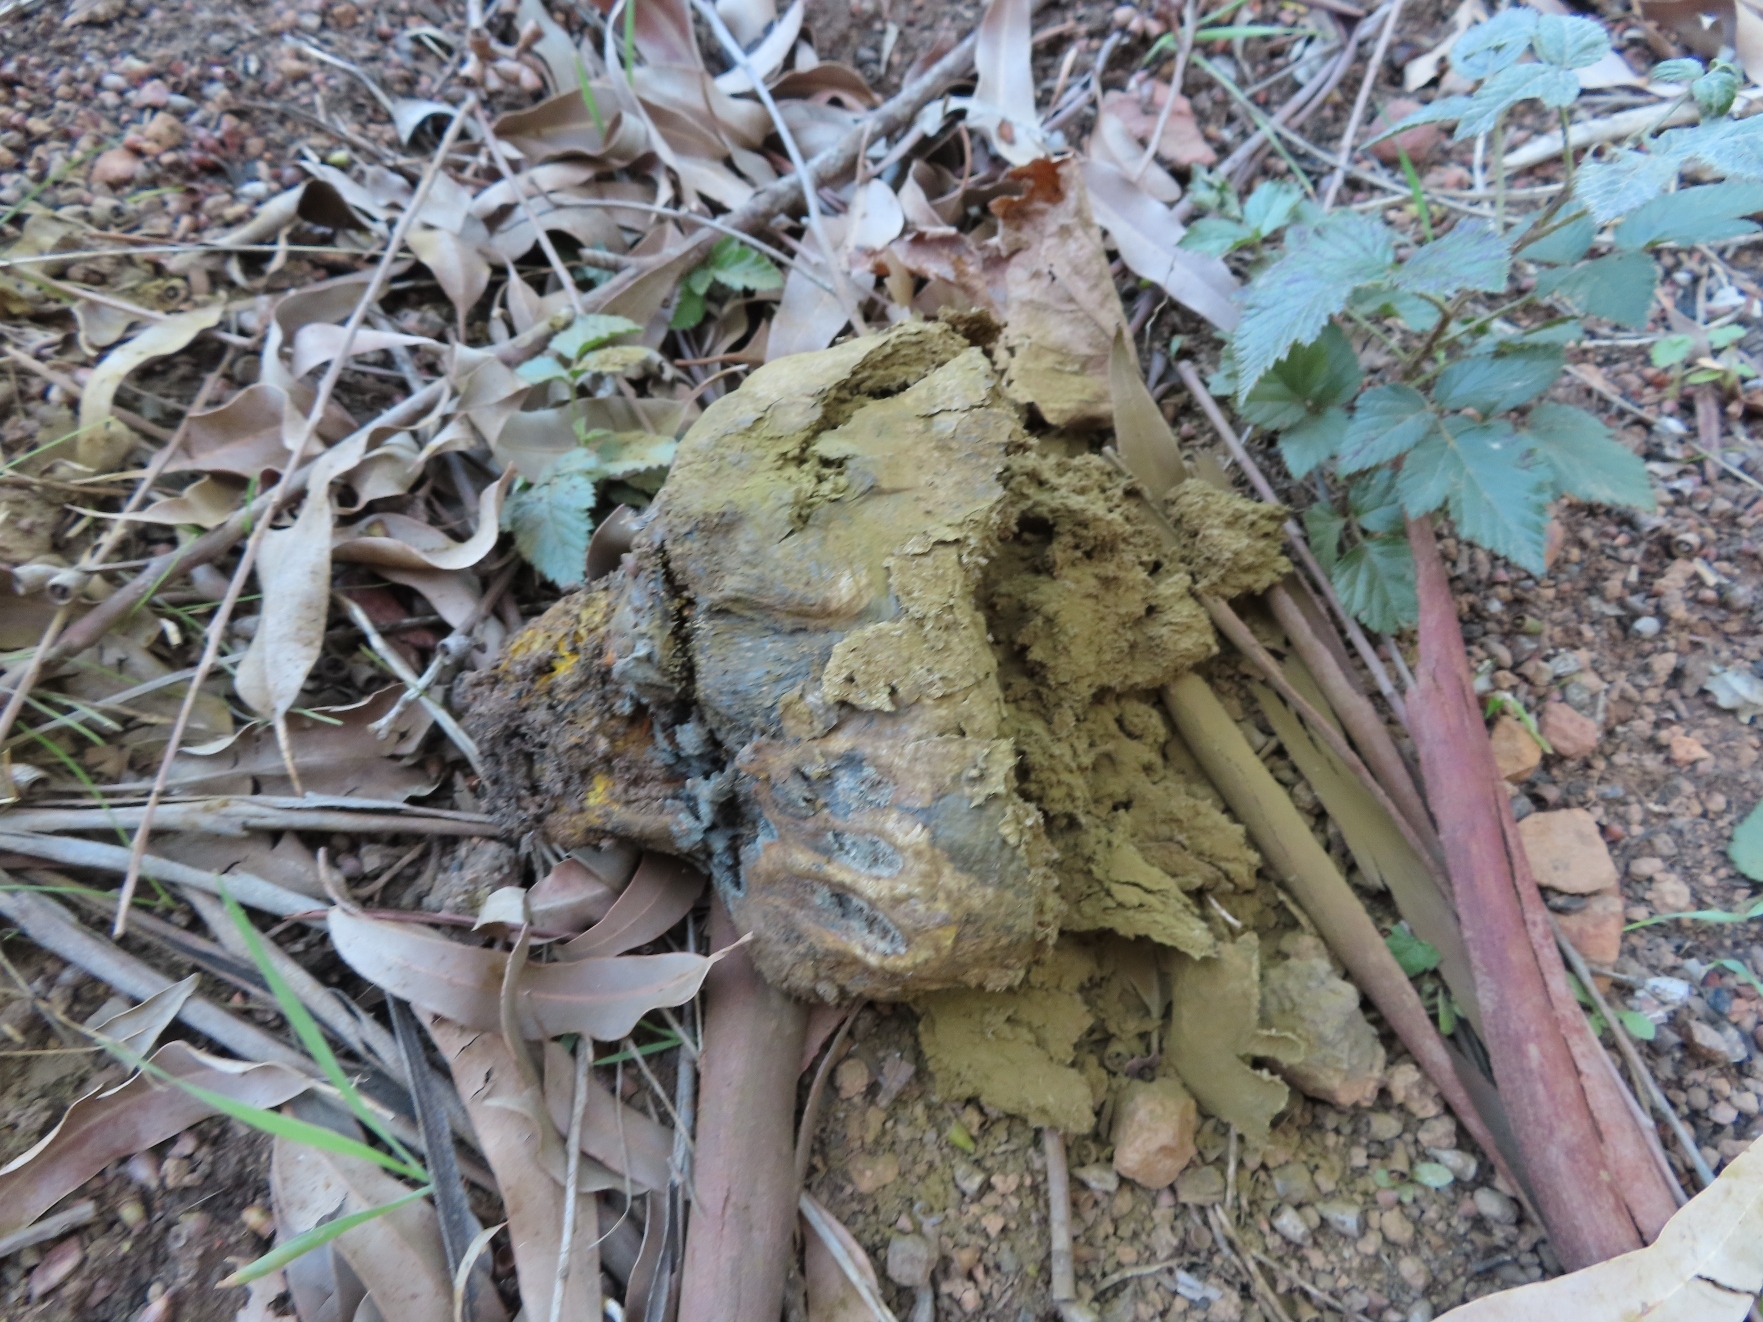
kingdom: Fungi
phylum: Basidiomycota
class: Agaricomycetes
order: Boletales
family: Sclerodermataceae
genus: Pisolithus
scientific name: Pisolithus arhizus
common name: Dyeball
